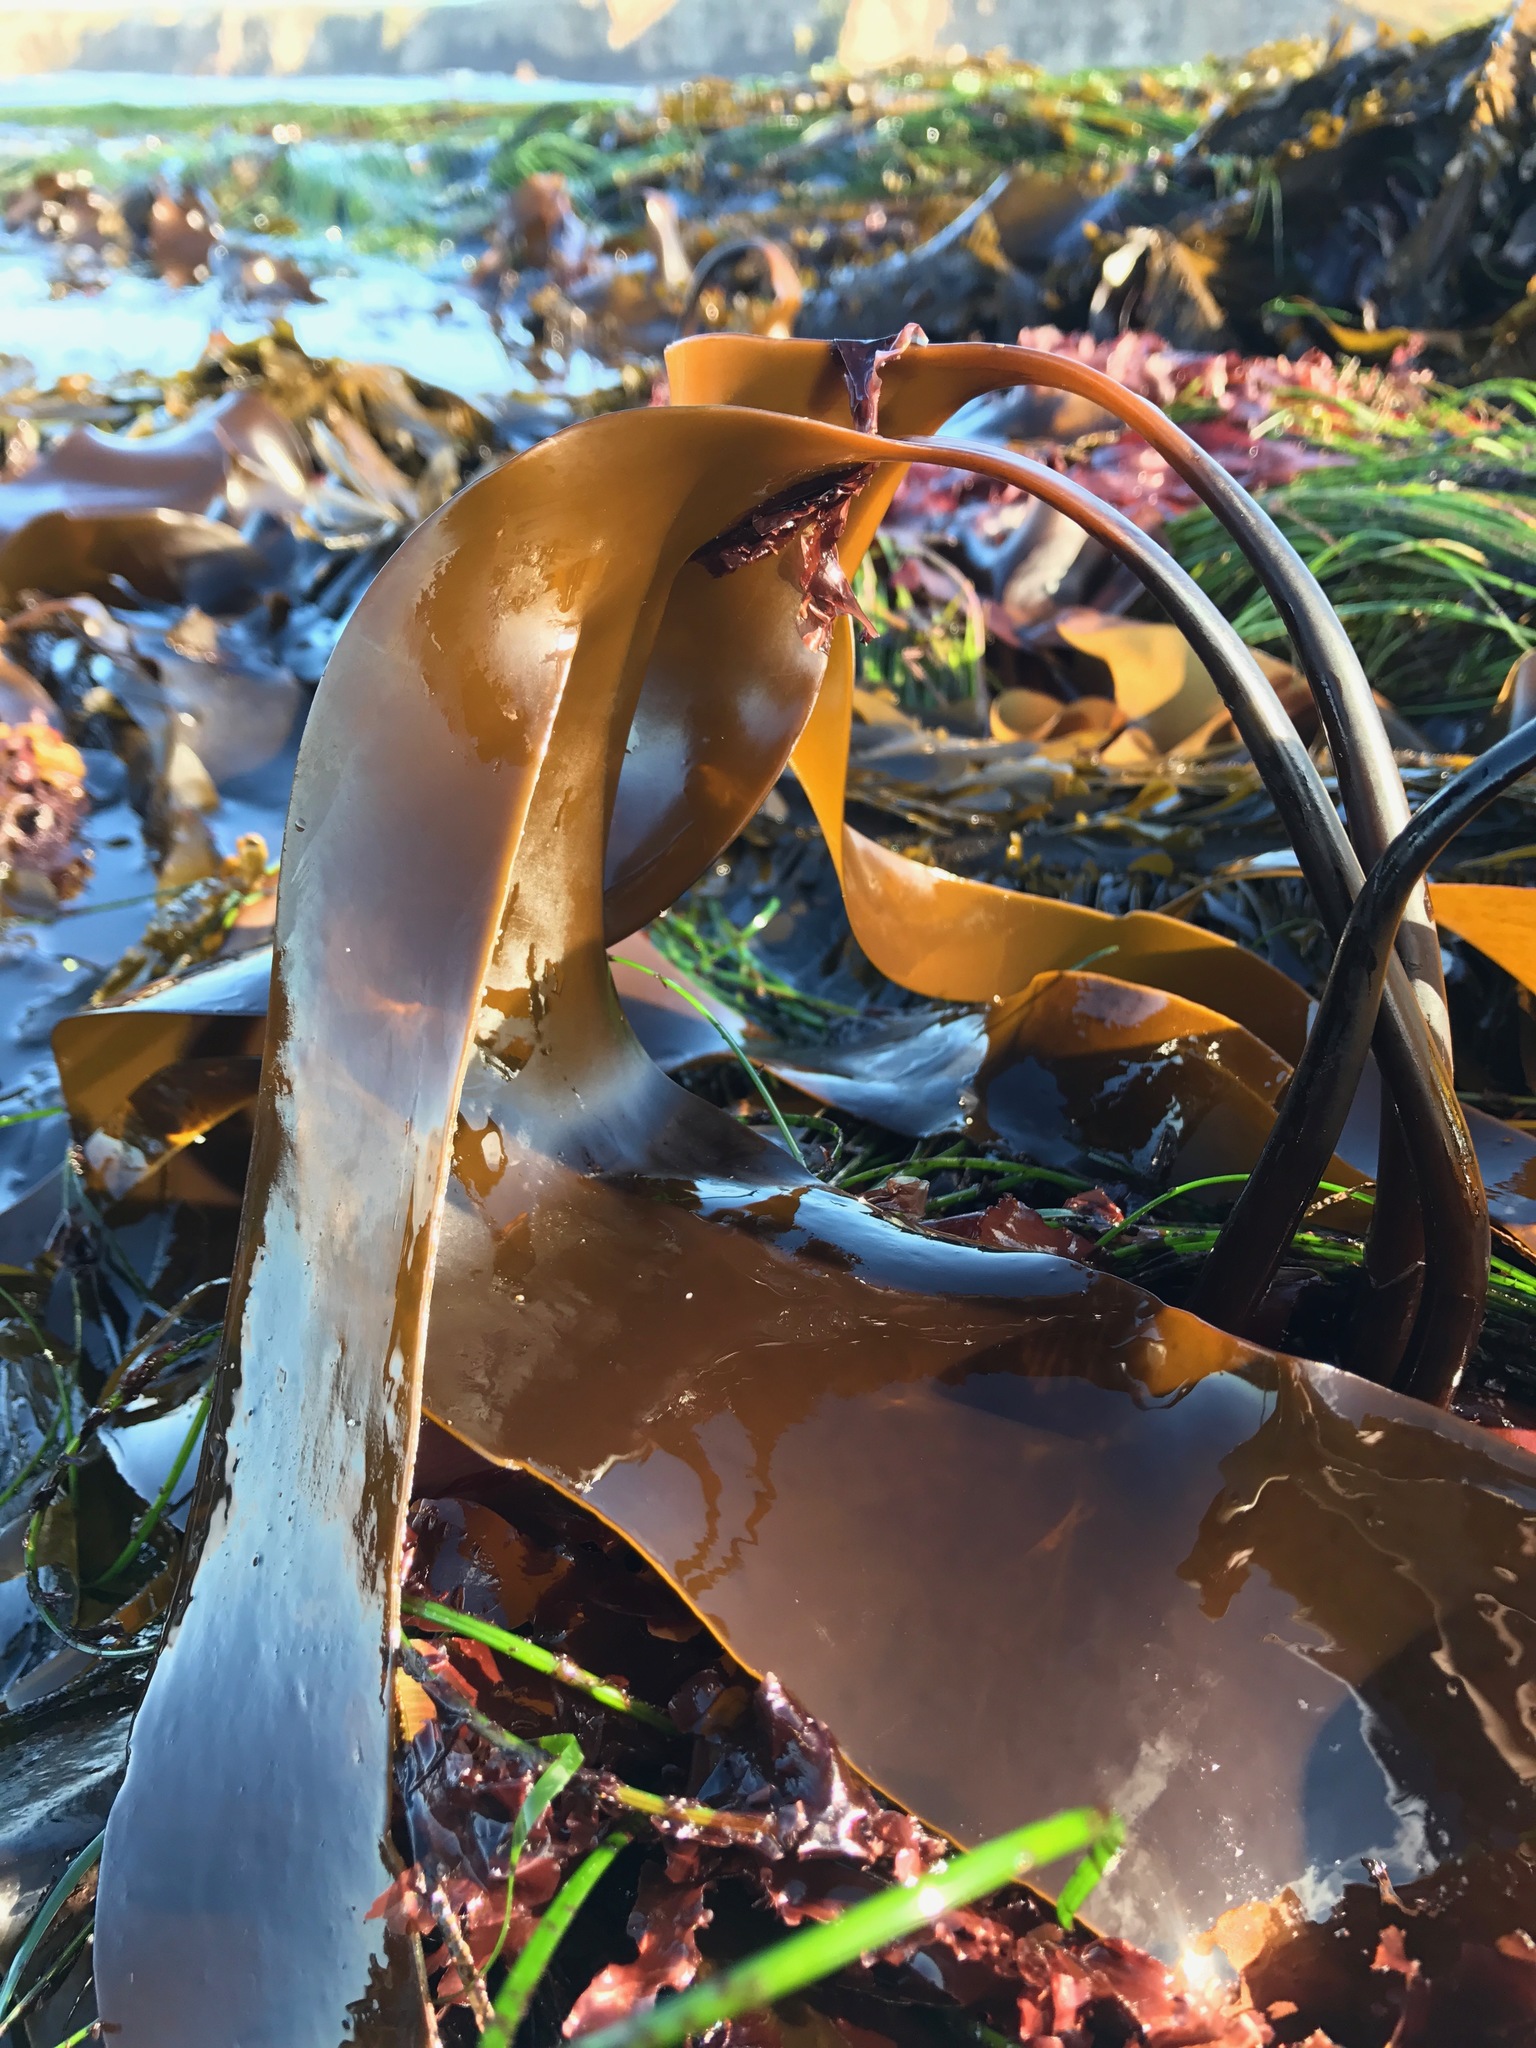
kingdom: Chromista
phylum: Ochrophyta
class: Phaeophyceae
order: Laminariales
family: Laminariaceae
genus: Laminaria
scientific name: Laminaria setchellii
